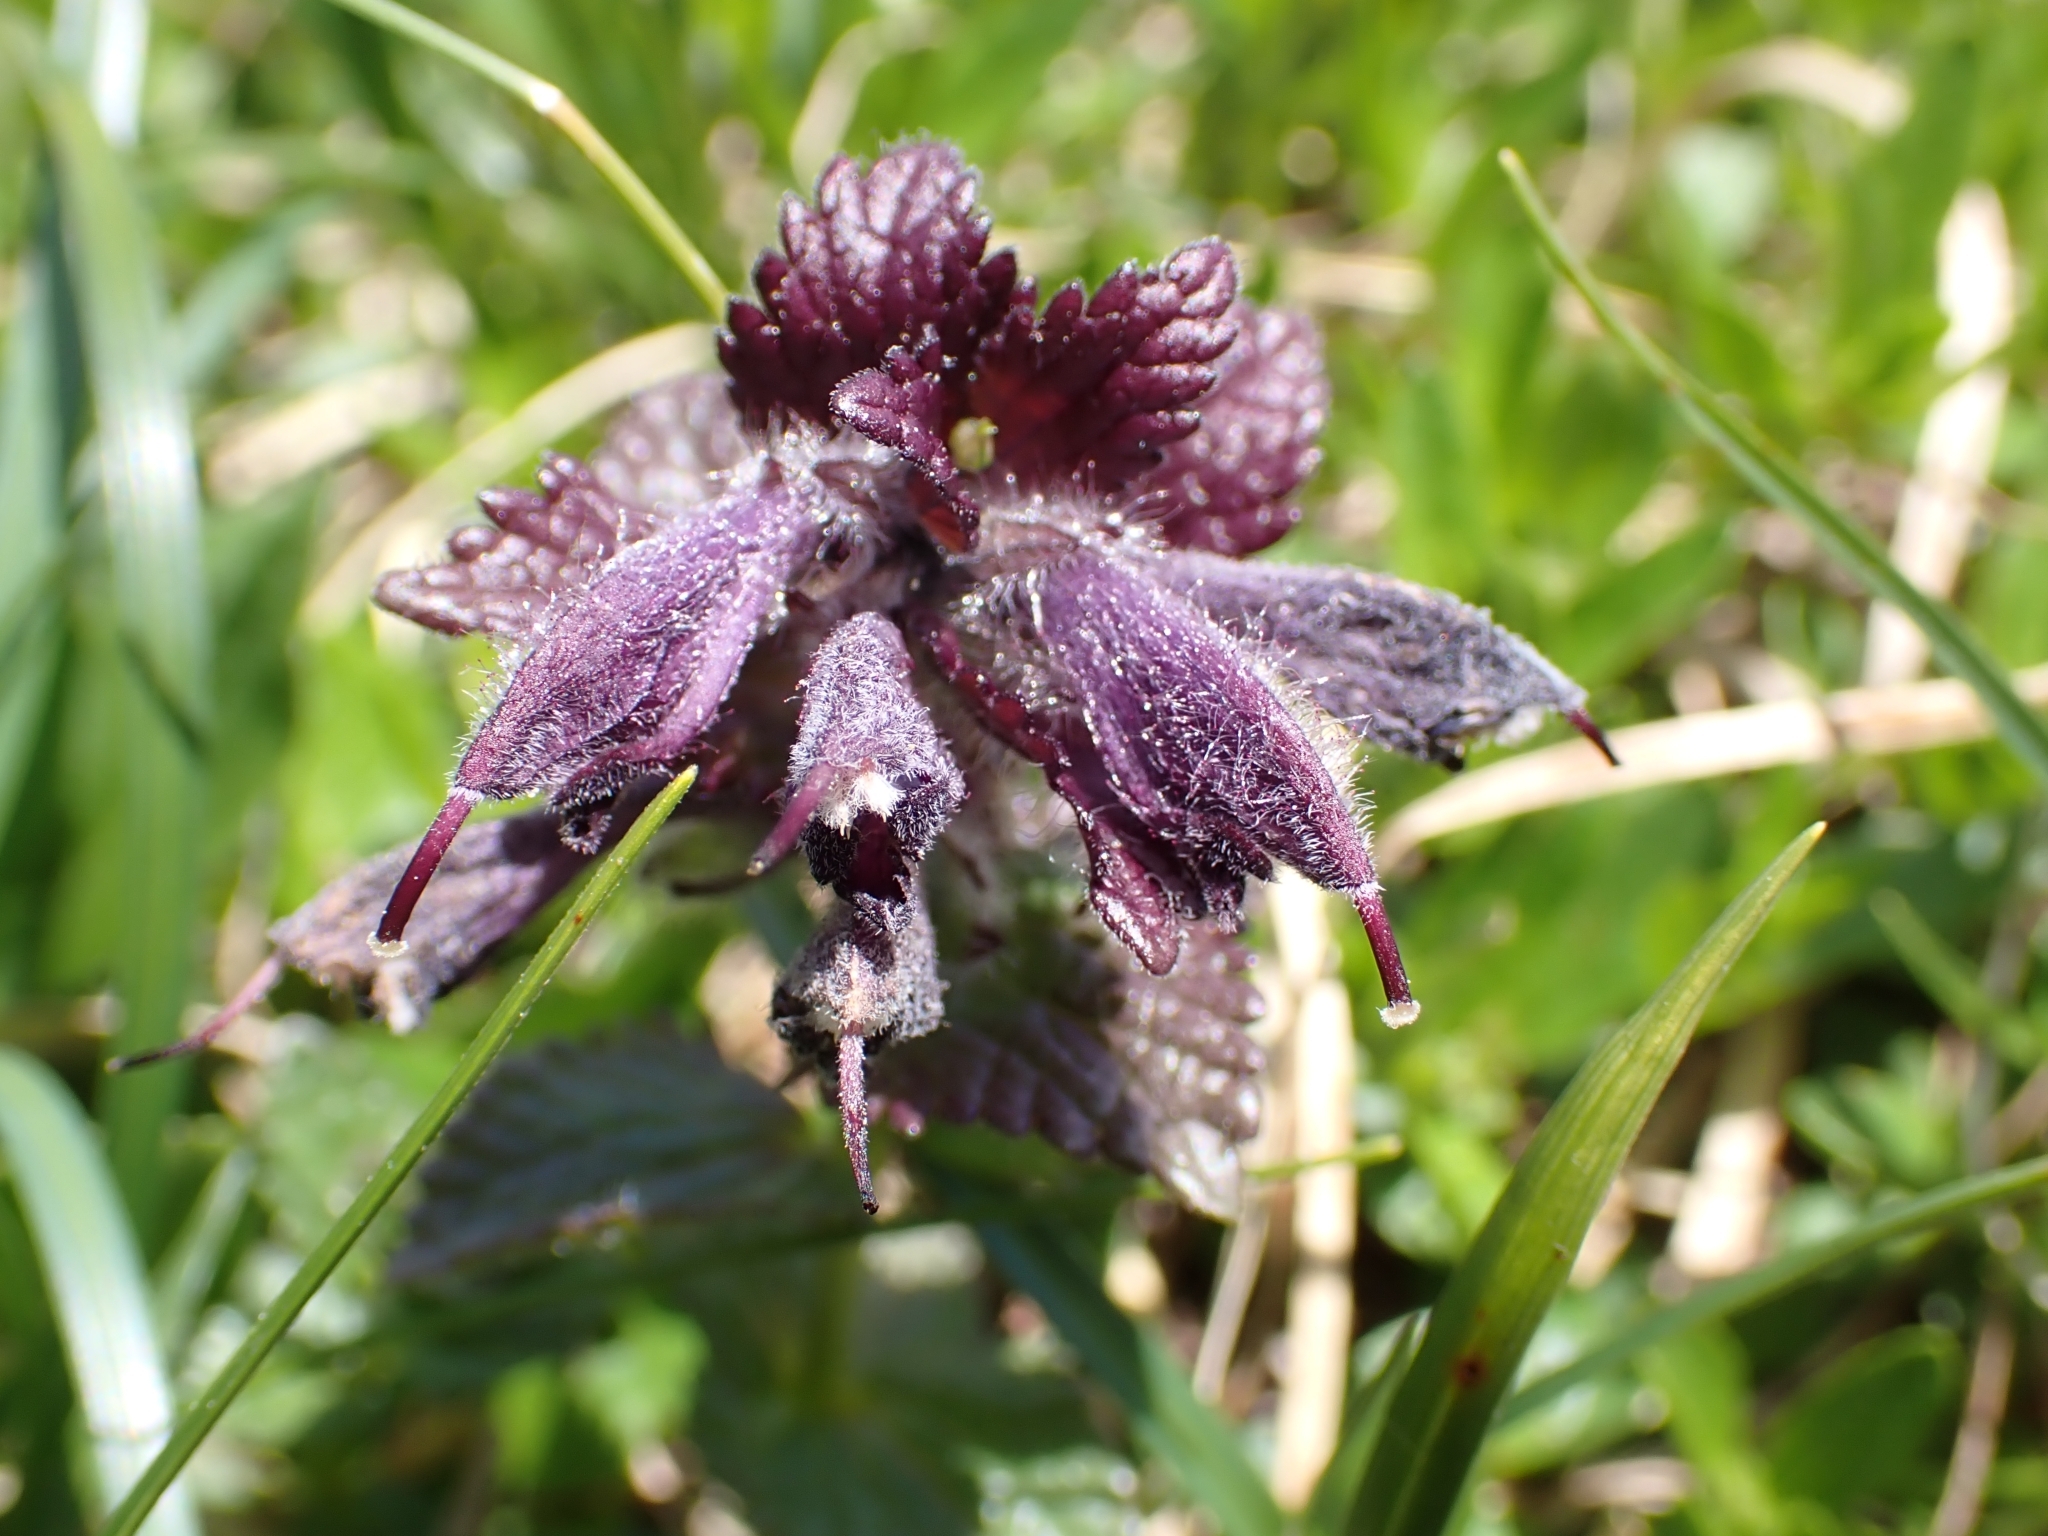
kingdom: Plantae
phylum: Tracheophyta
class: Magnoliopsida
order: Lamiales
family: Orobanchaceae
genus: Bartsia
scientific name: Bartsia alpina
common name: Alpine bartsia
